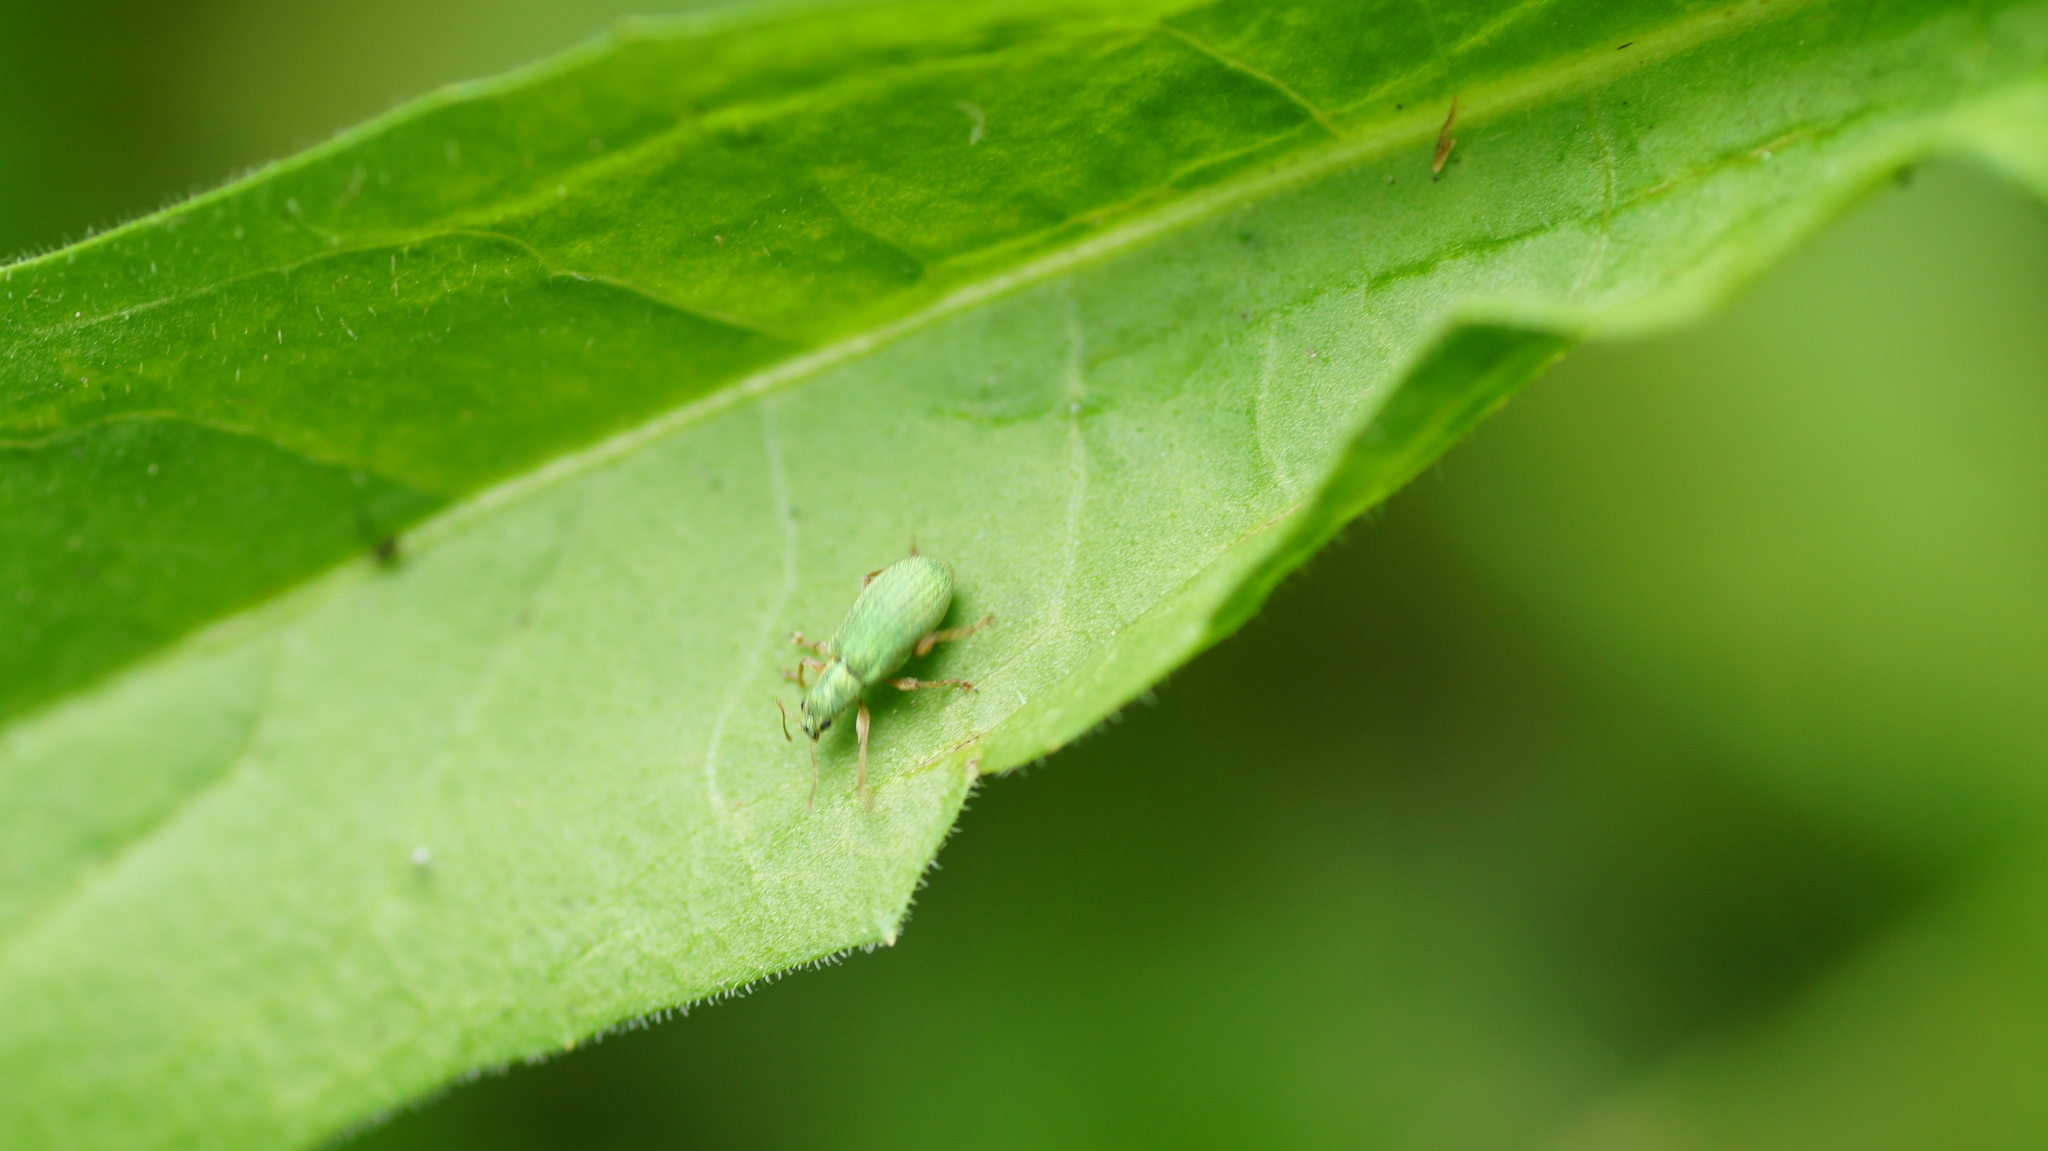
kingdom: Animalia
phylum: Arthropoda
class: Insecta
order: Coleoptera
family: Curculionidae
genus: Eustolus
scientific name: Eustolus
